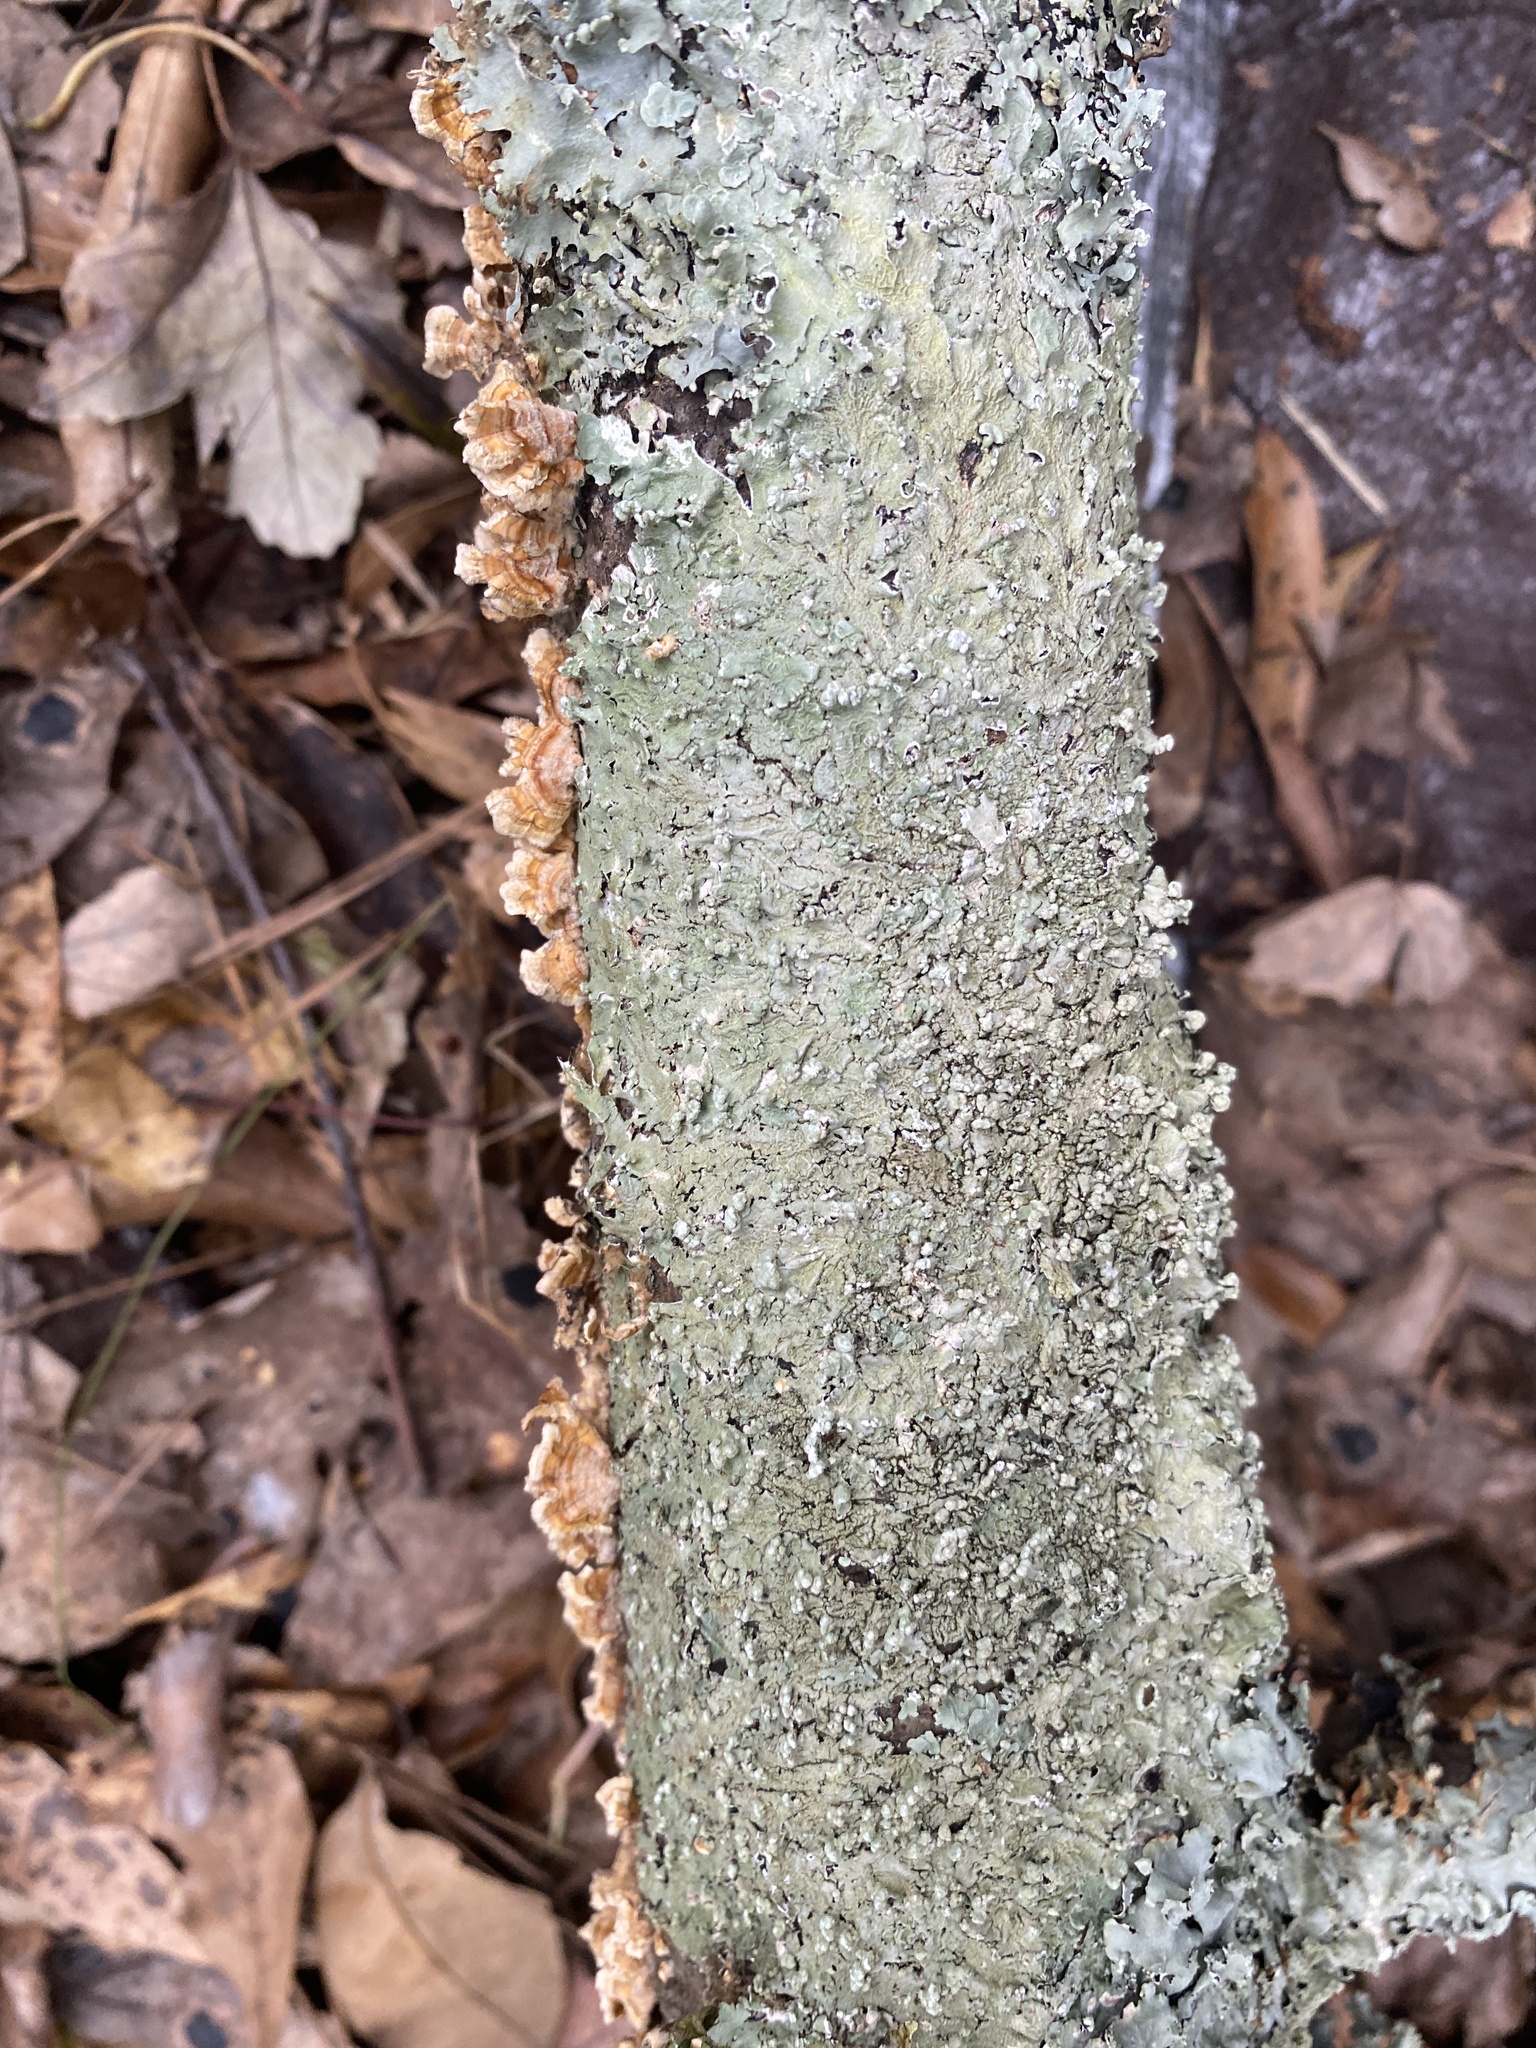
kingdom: Fungi
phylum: Ascomycota
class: Lecanoromycetes
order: Lecanorales
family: Parmeliaceae
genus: Canoparmelia
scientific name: Canoparmelia cryptochlorophaea
